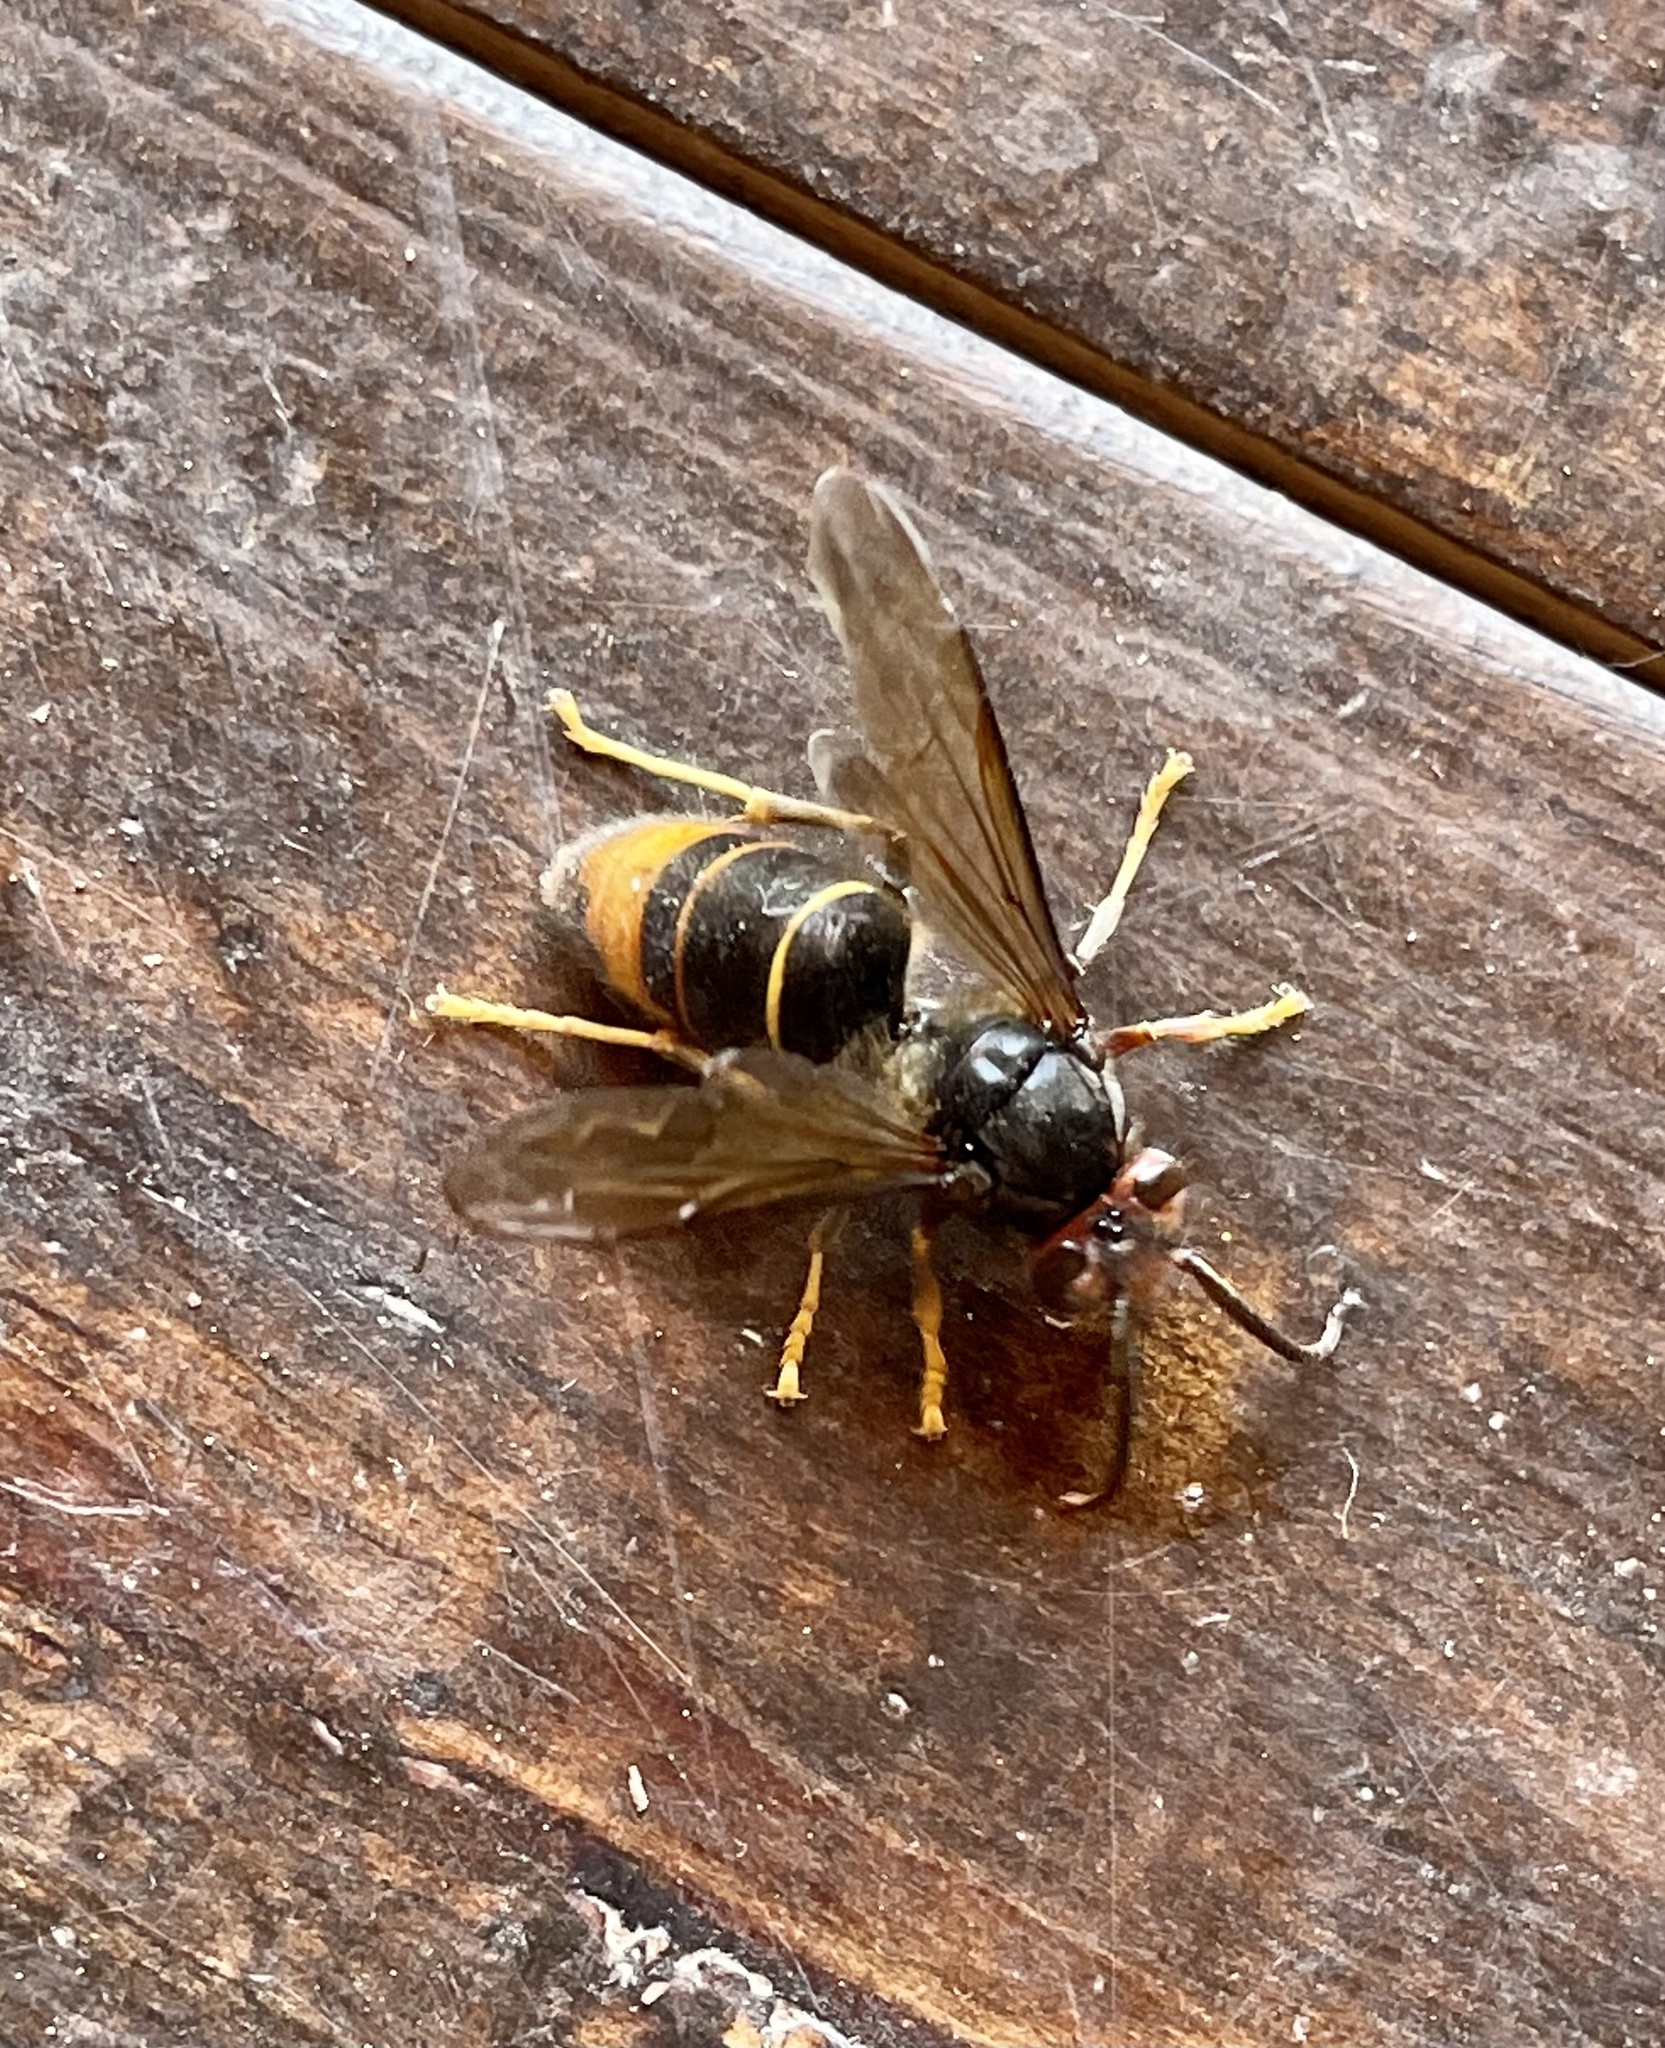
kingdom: Animalia
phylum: Arthropoda
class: Insecta
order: Hymenoptera
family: Vespidae
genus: Vespa
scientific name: Vespa velutina
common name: Asian hornet
